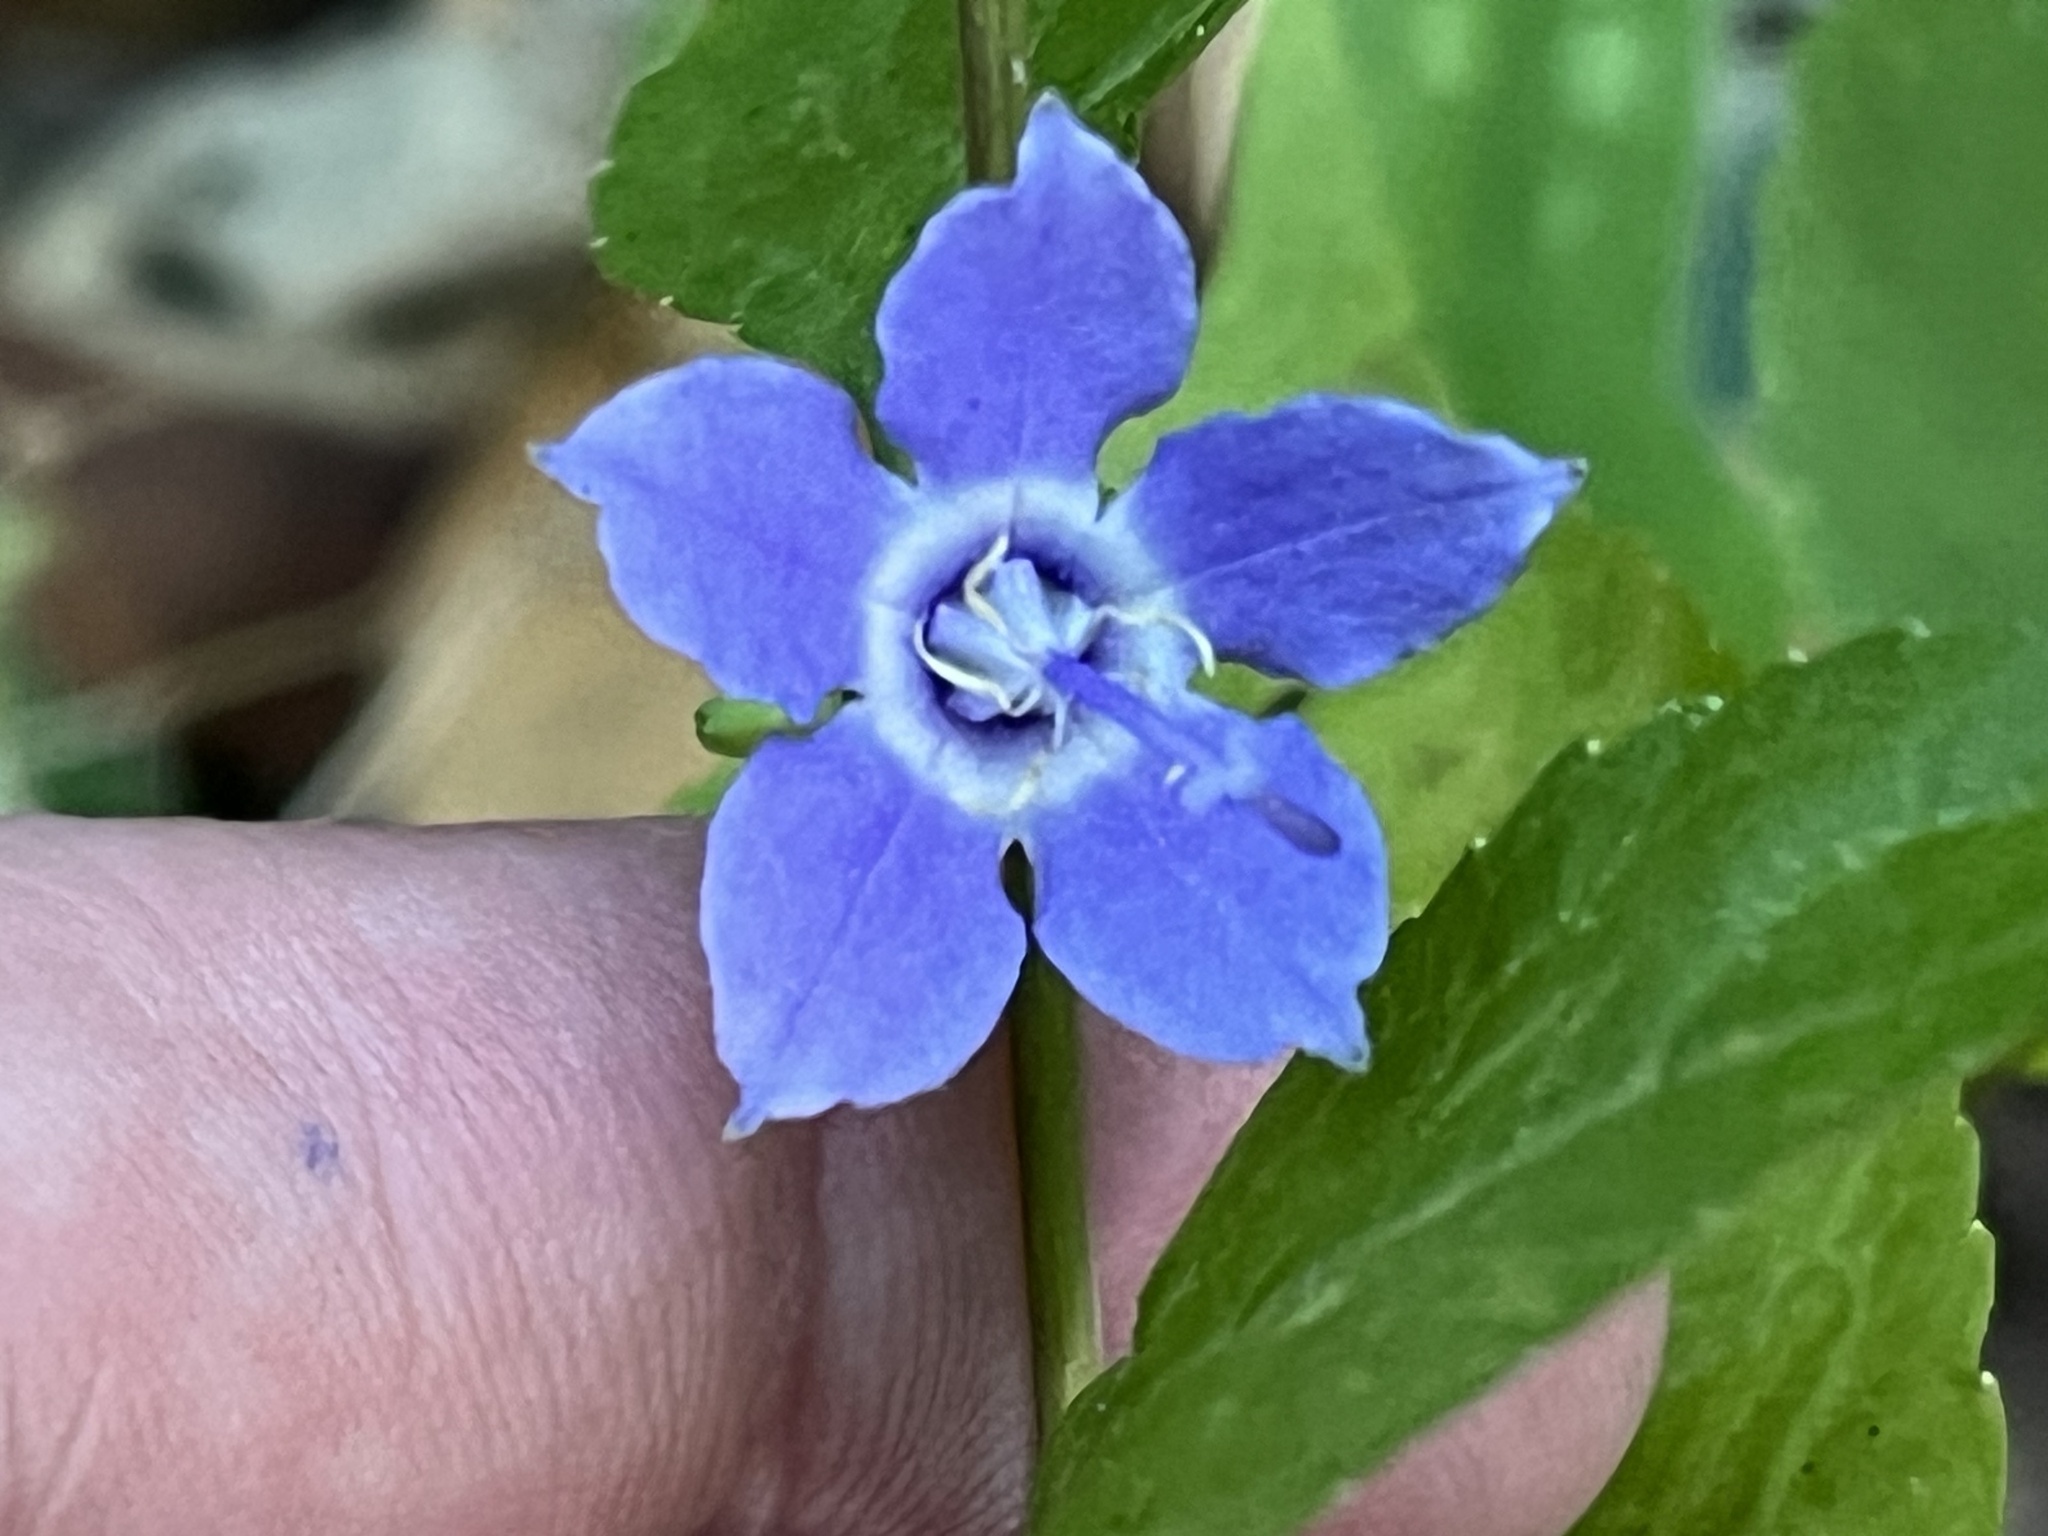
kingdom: Plantae
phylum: Tracheophyta
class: Magnoliopsida
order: Asterales
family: Campanulaceae
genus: Campanulastrum
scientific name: Campanulastrum americanum
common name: American bellflower
